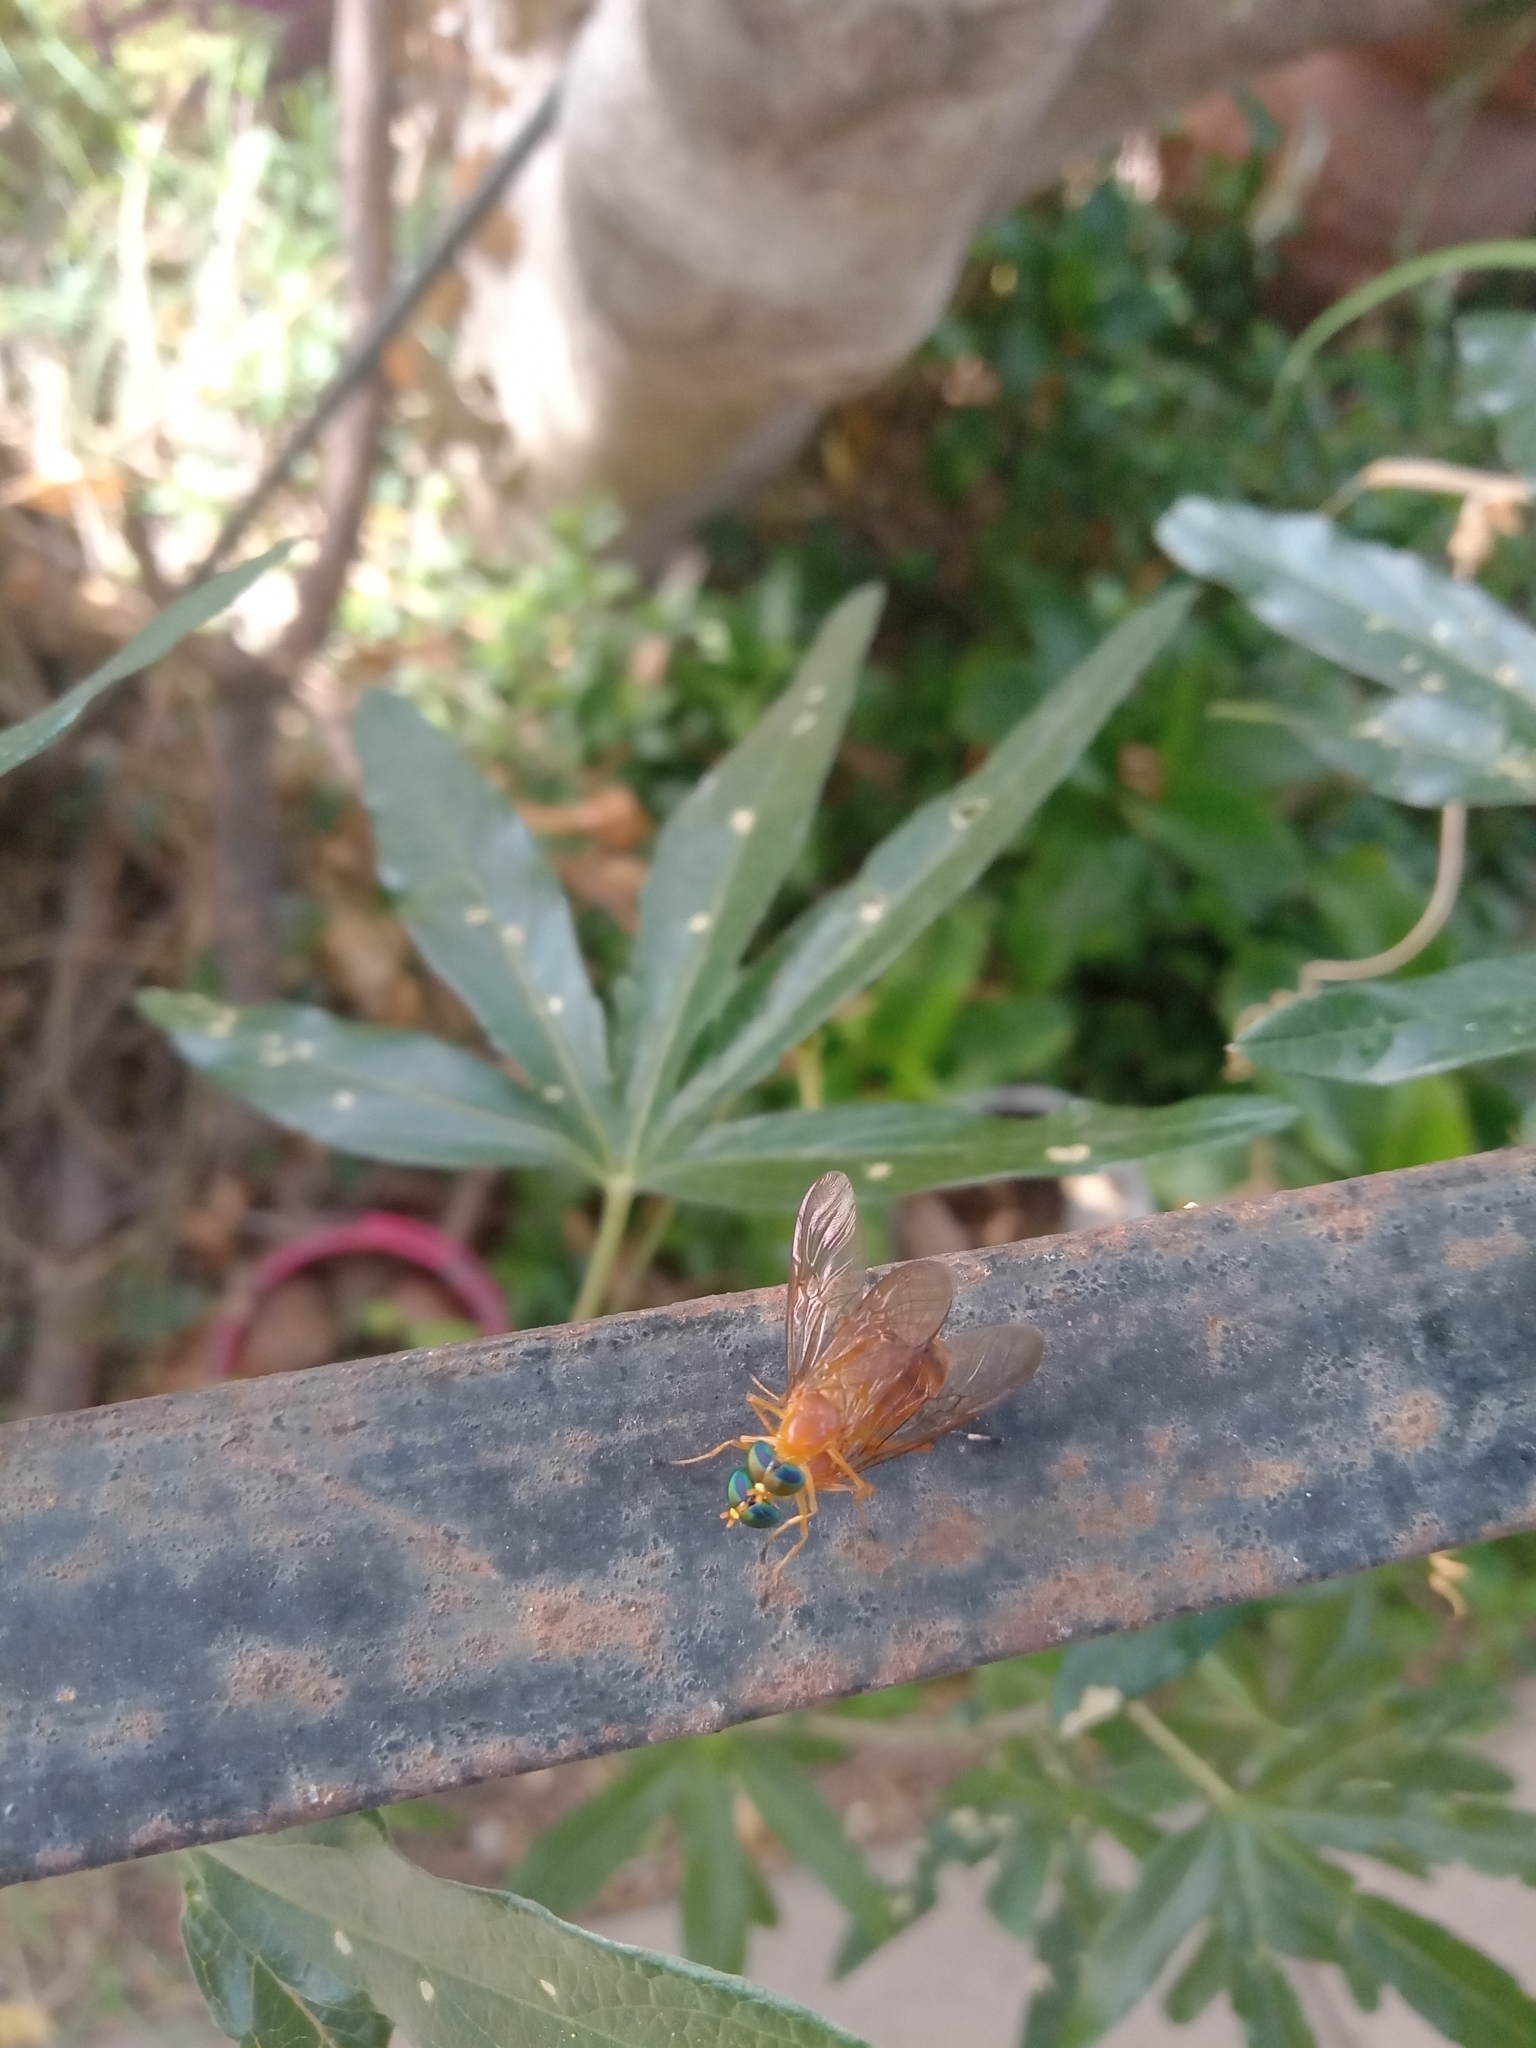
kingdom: Animalia
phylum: Arthropoda
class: Insecta
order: Diptera
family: Stratiomyidae
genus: Ptecticus
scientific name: Ptecticus testaceus
